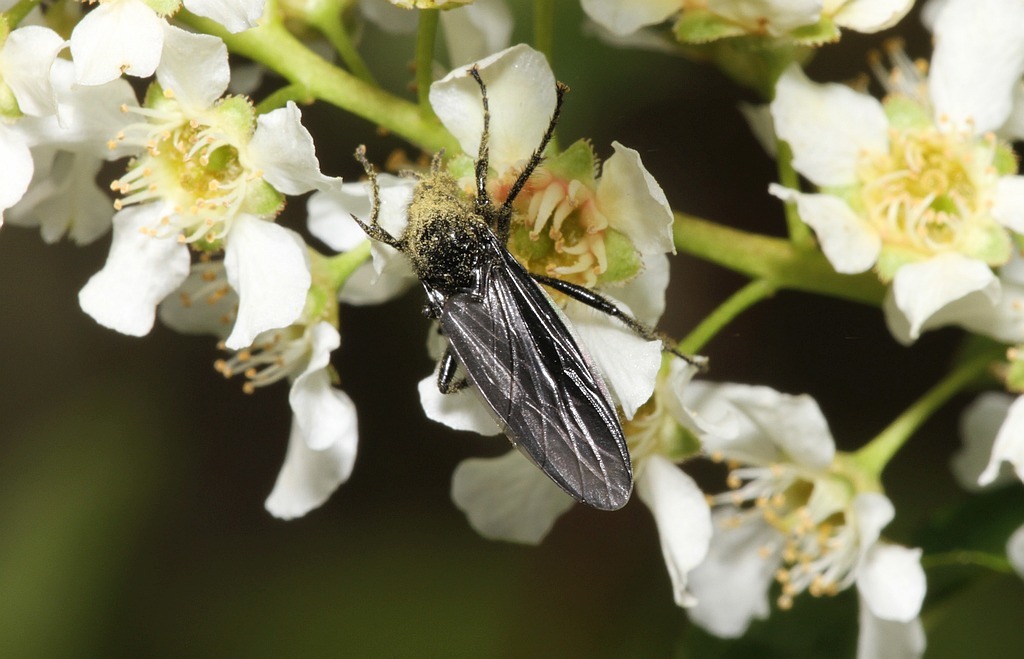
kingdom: Animalia
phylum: Arthropoda
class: Insecta
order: Diptera
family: Bibionidae
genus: Bibio
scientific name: Bibio marci
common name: St marks fly
